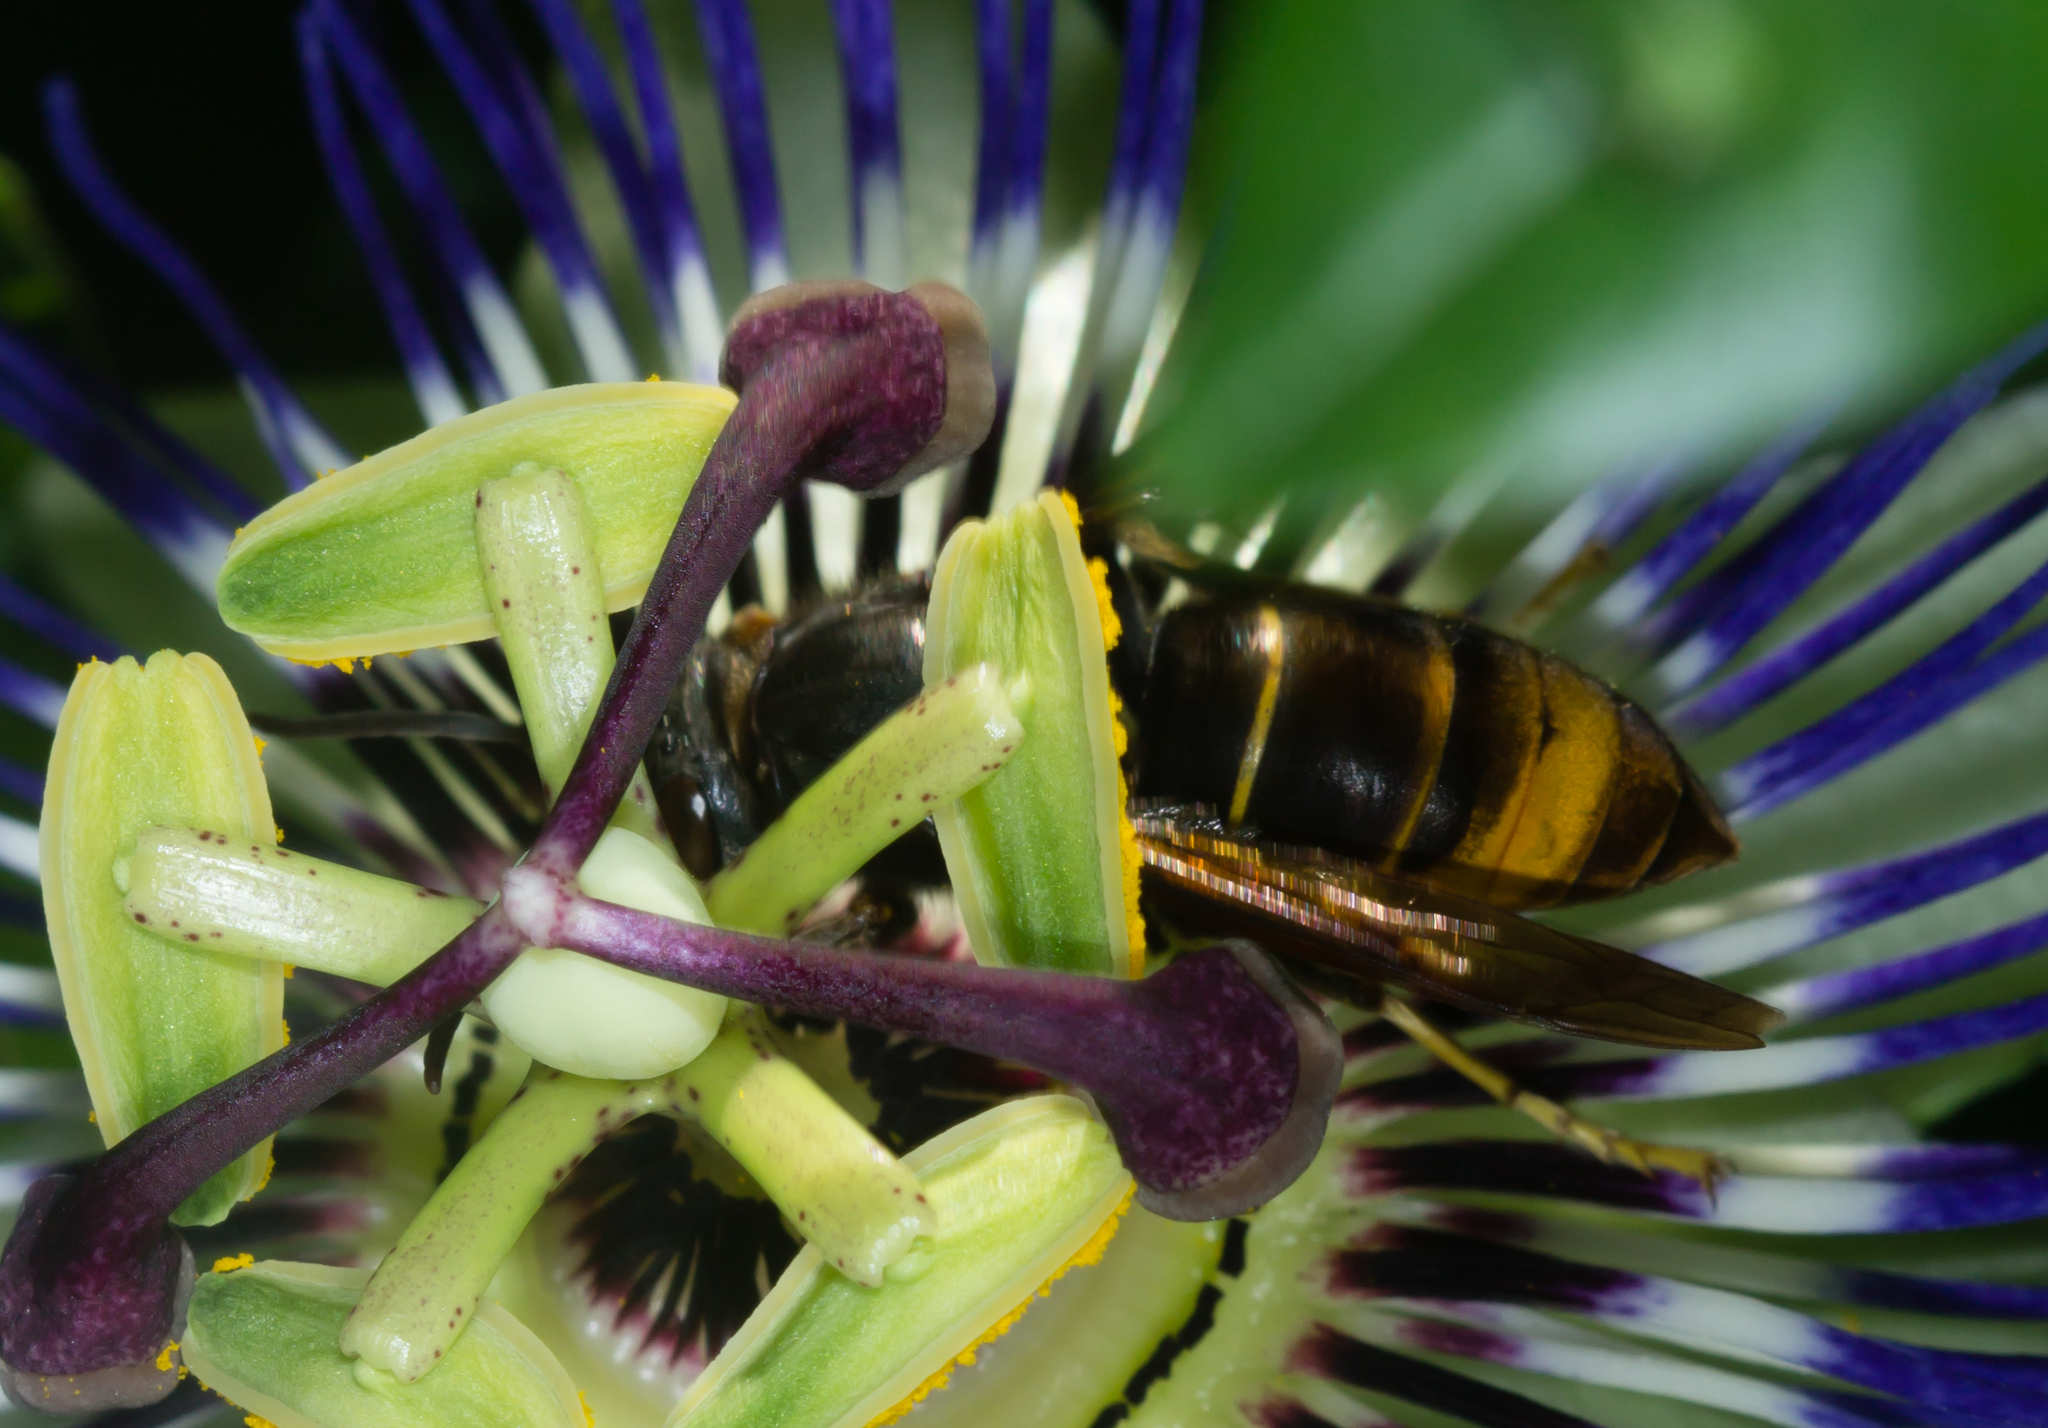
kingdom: Animalia
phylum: Arthropoda
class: Insecta
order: Hymenoptera
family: Vespidae
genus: Vespa
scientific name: Vespa velutina
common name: Asian hornet
